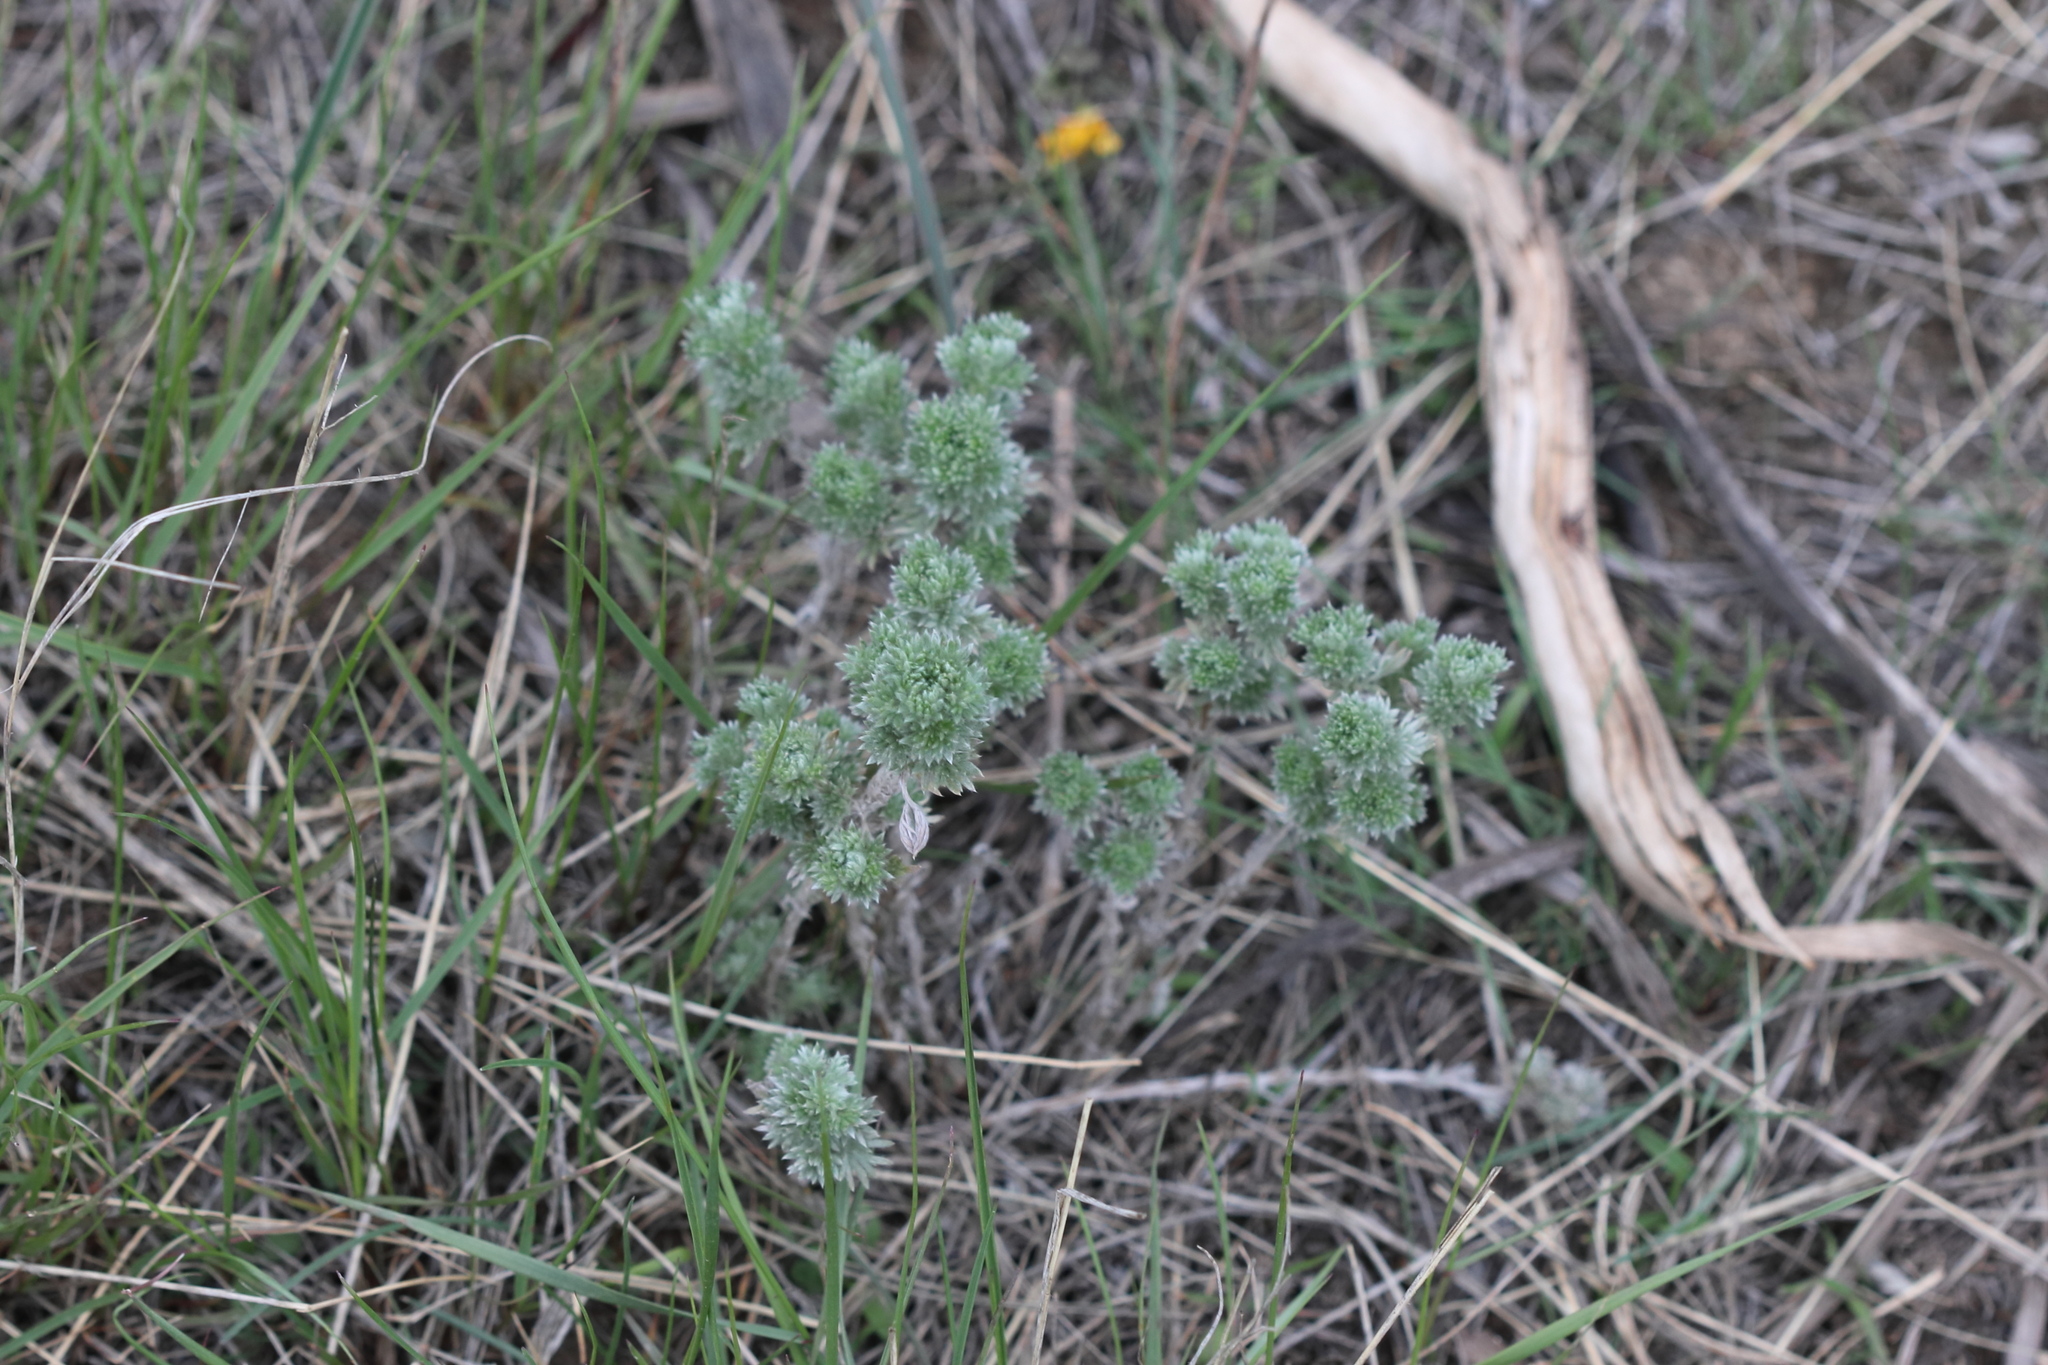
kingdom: Plantae
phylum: Tracheophyta
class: Magnoliopsida
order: Asterales
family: Asteraceae
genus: Artemisia
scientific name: Artemisia frigida
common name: Prairie sagewort
